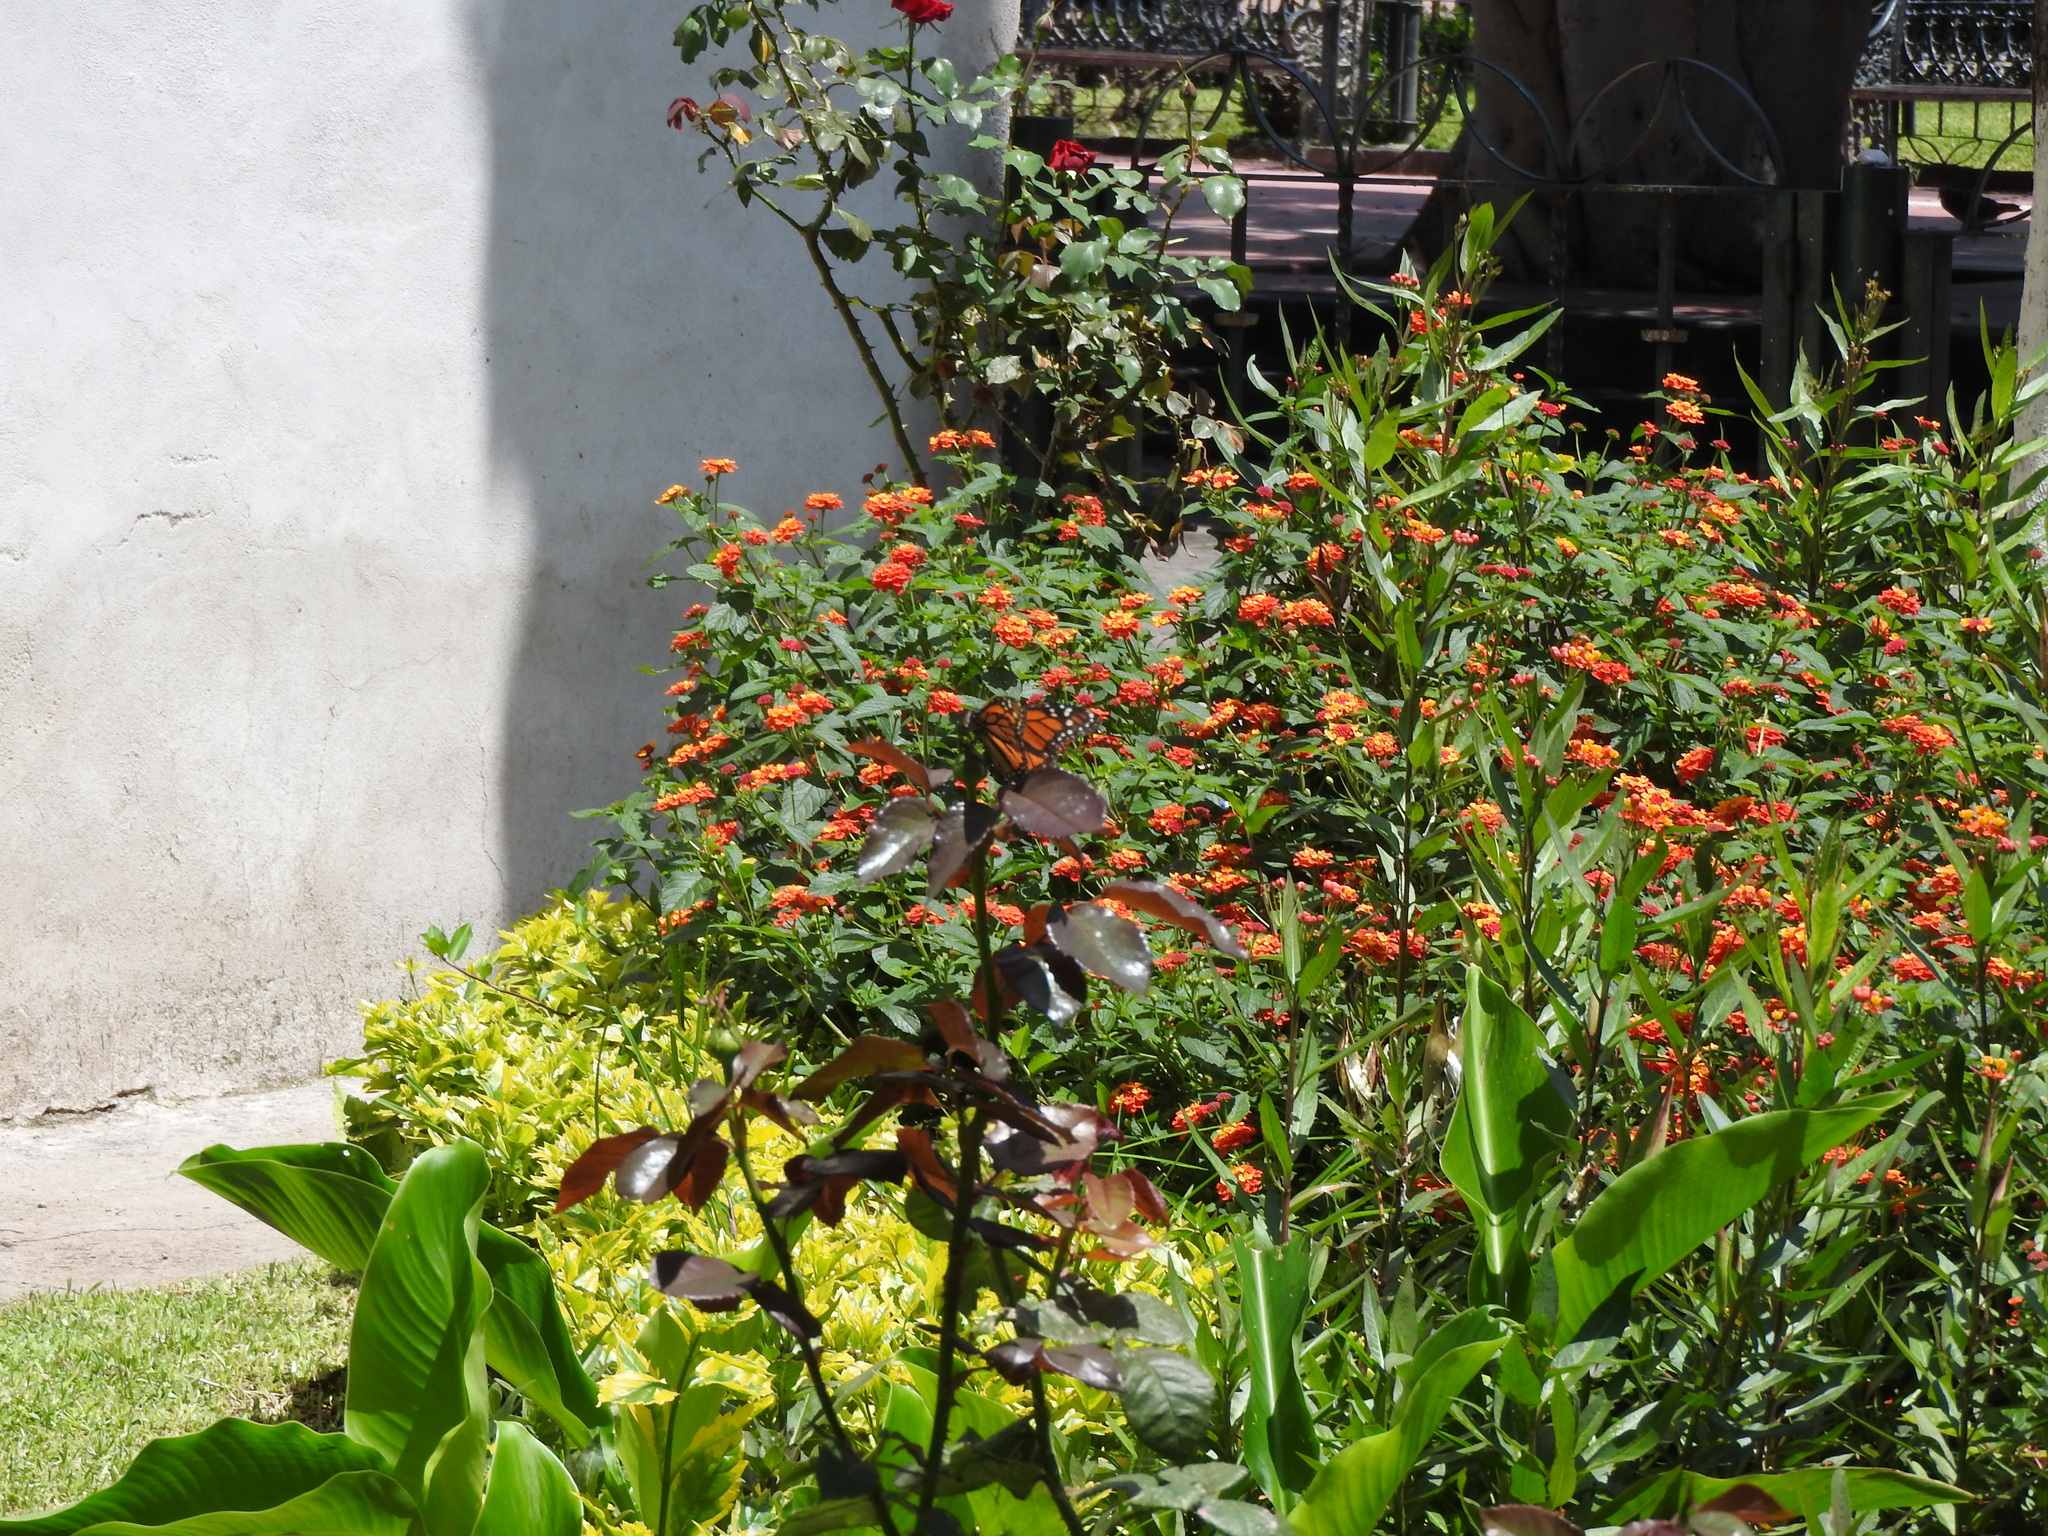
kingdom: Animalia
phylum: Arthropoda
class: Insecta
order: Lepidoptera
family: Nymphalidae
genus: Danaus
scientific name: Danaus plexippus
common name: Monarch
